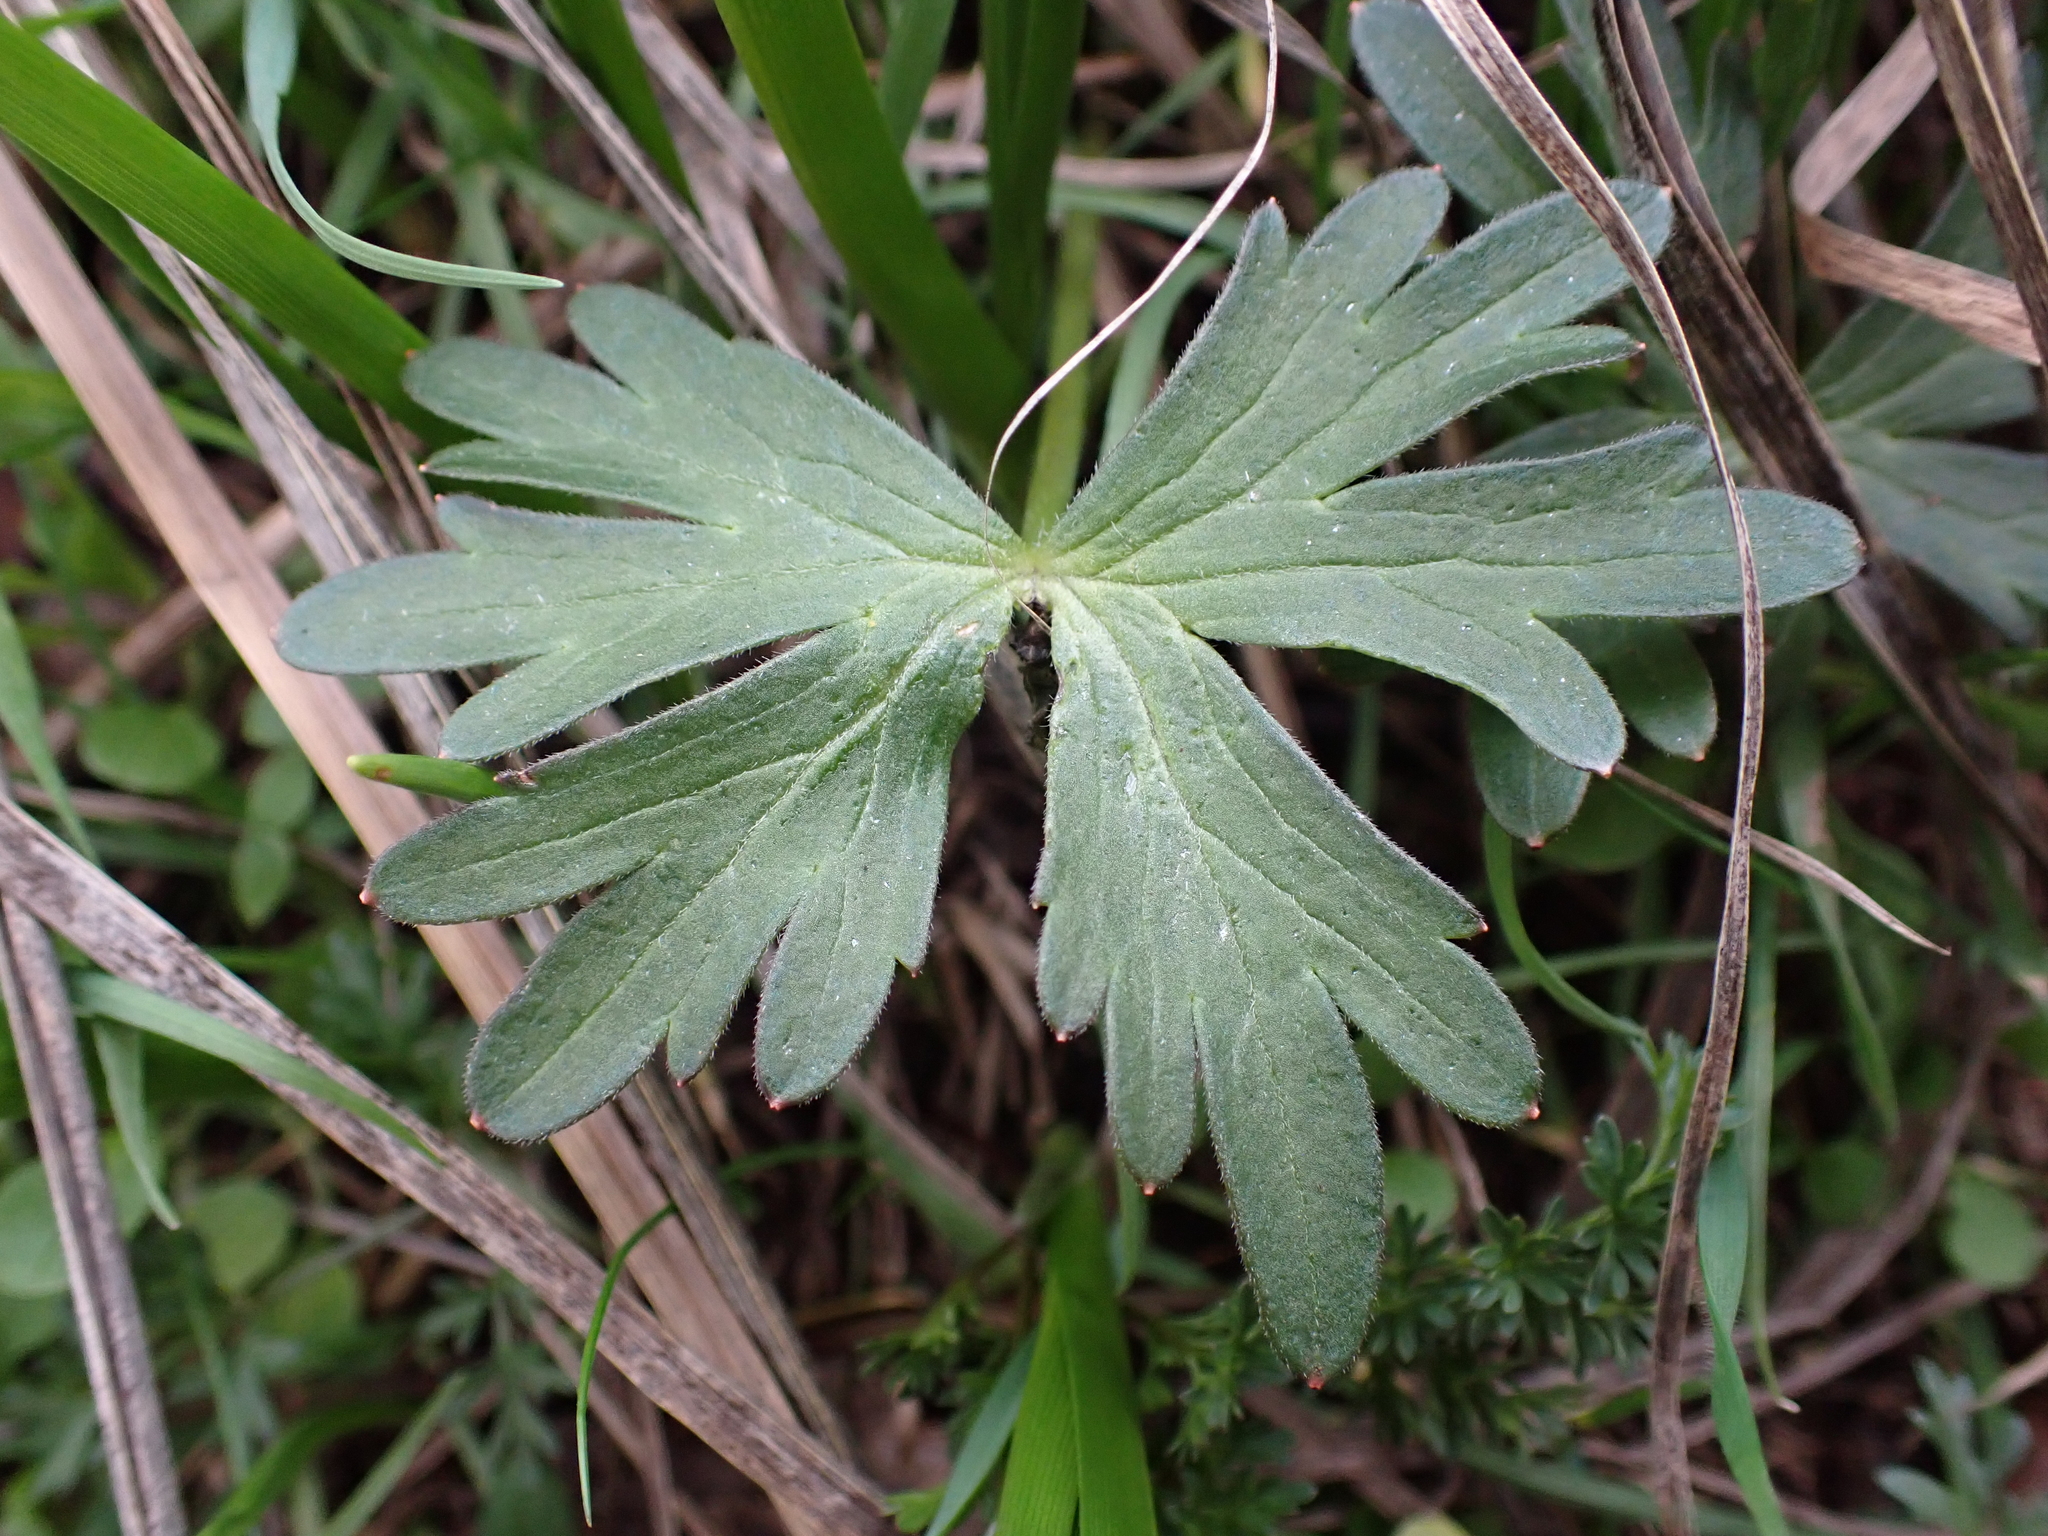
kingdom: Plantae
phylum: Tracheophyta
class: Magnoliopsida
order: Ranunculales
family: Ranunculaceae
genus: Delphinium
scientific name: Delphinium menziesii
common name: Menzies's larkspur
